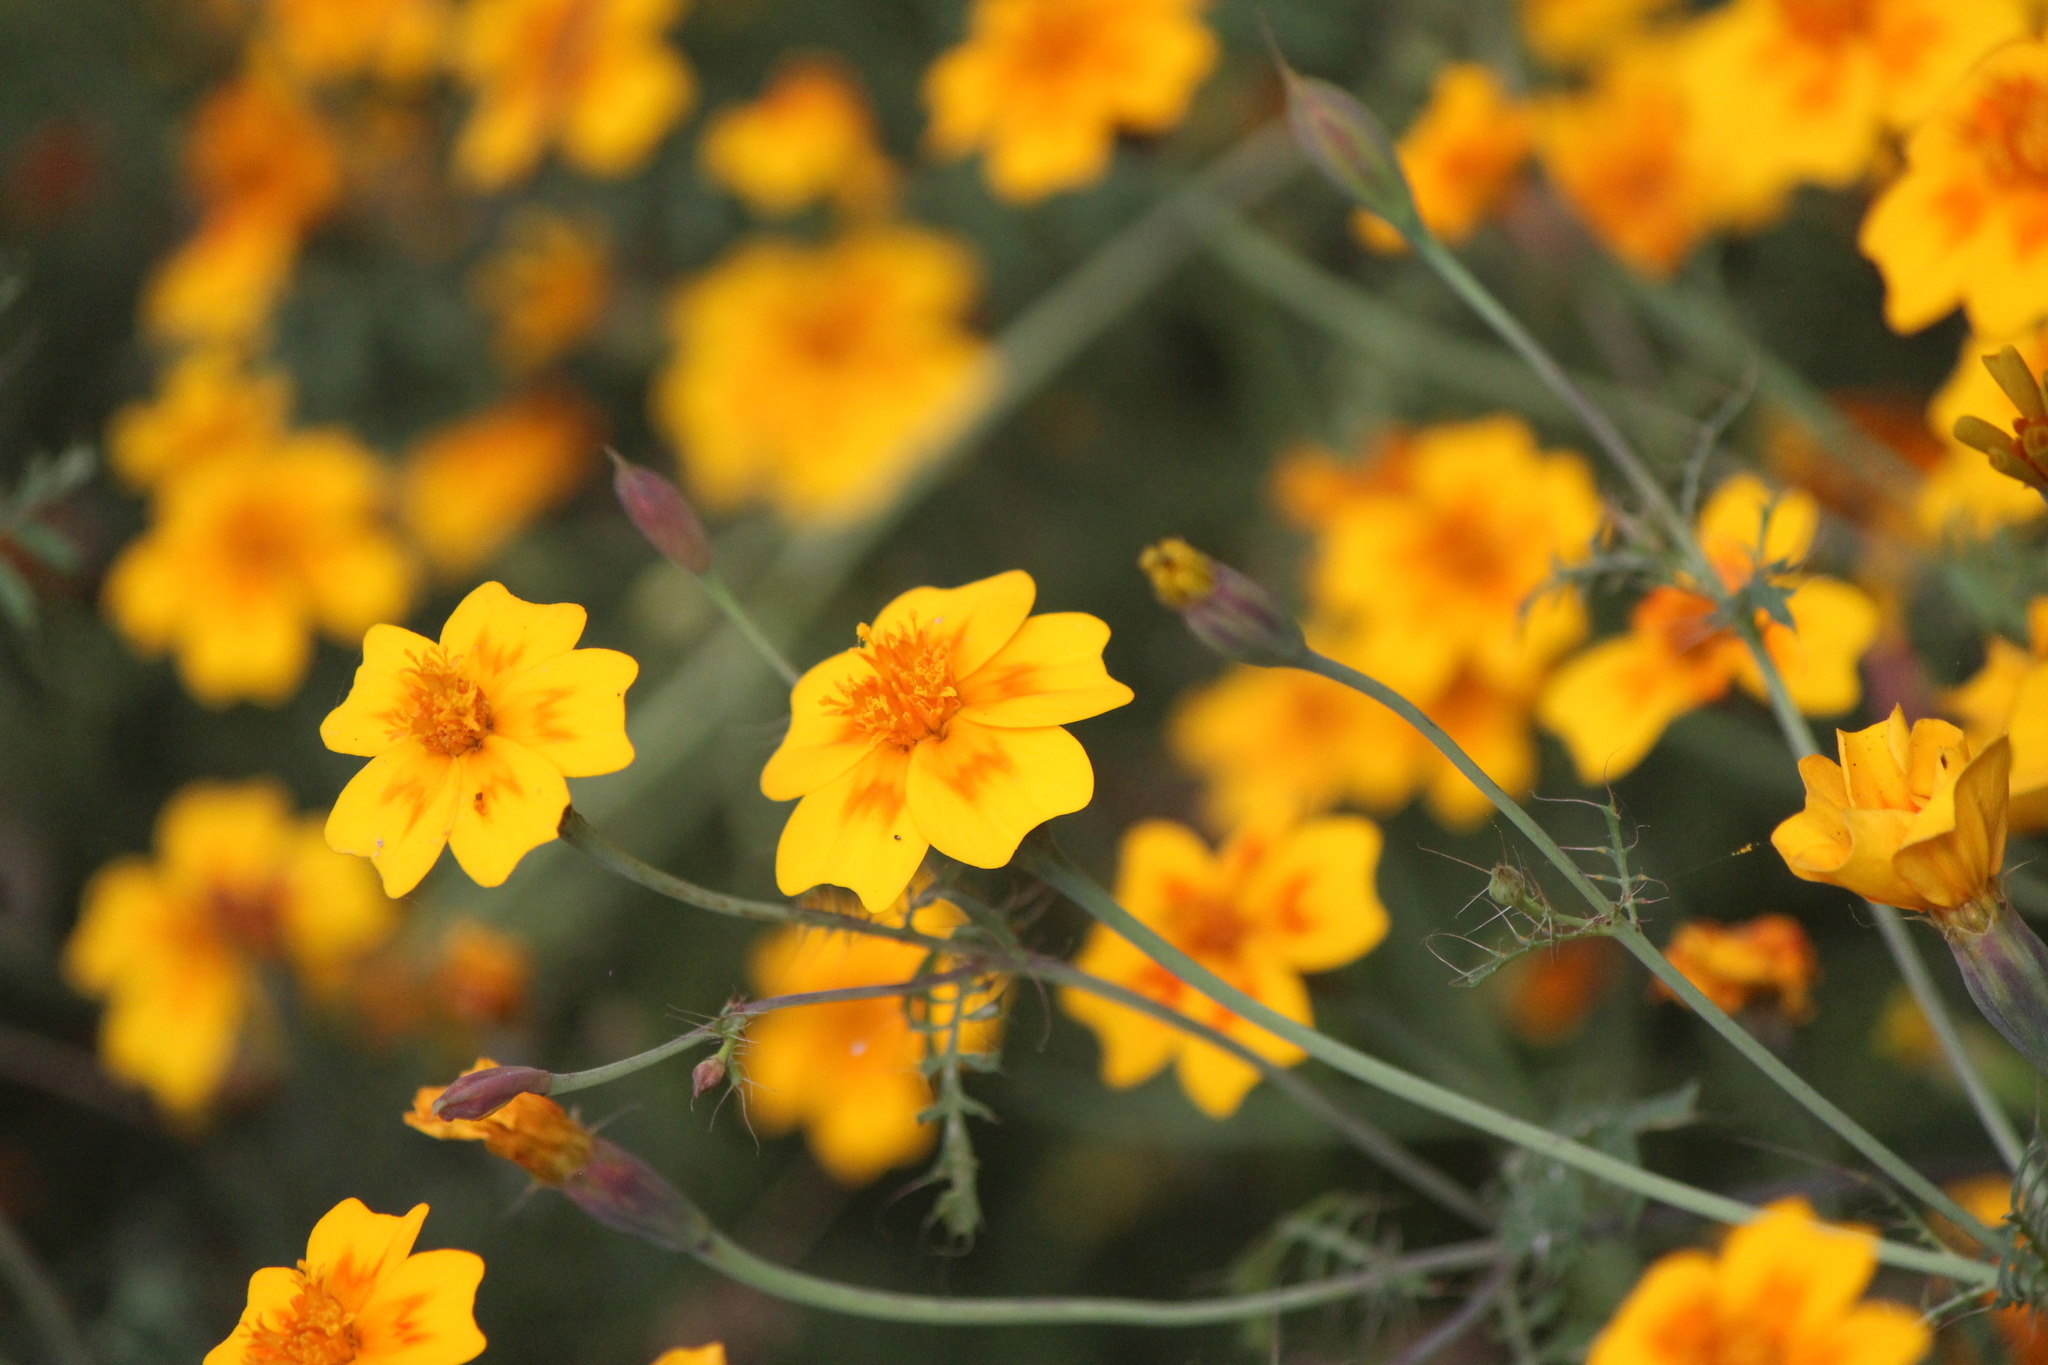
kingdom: Plantae
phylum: Tracheophyta
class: Magnoliopsida
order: Asterales
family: Asteraceae
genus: Tagetes
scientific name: Tagetes lunulata
